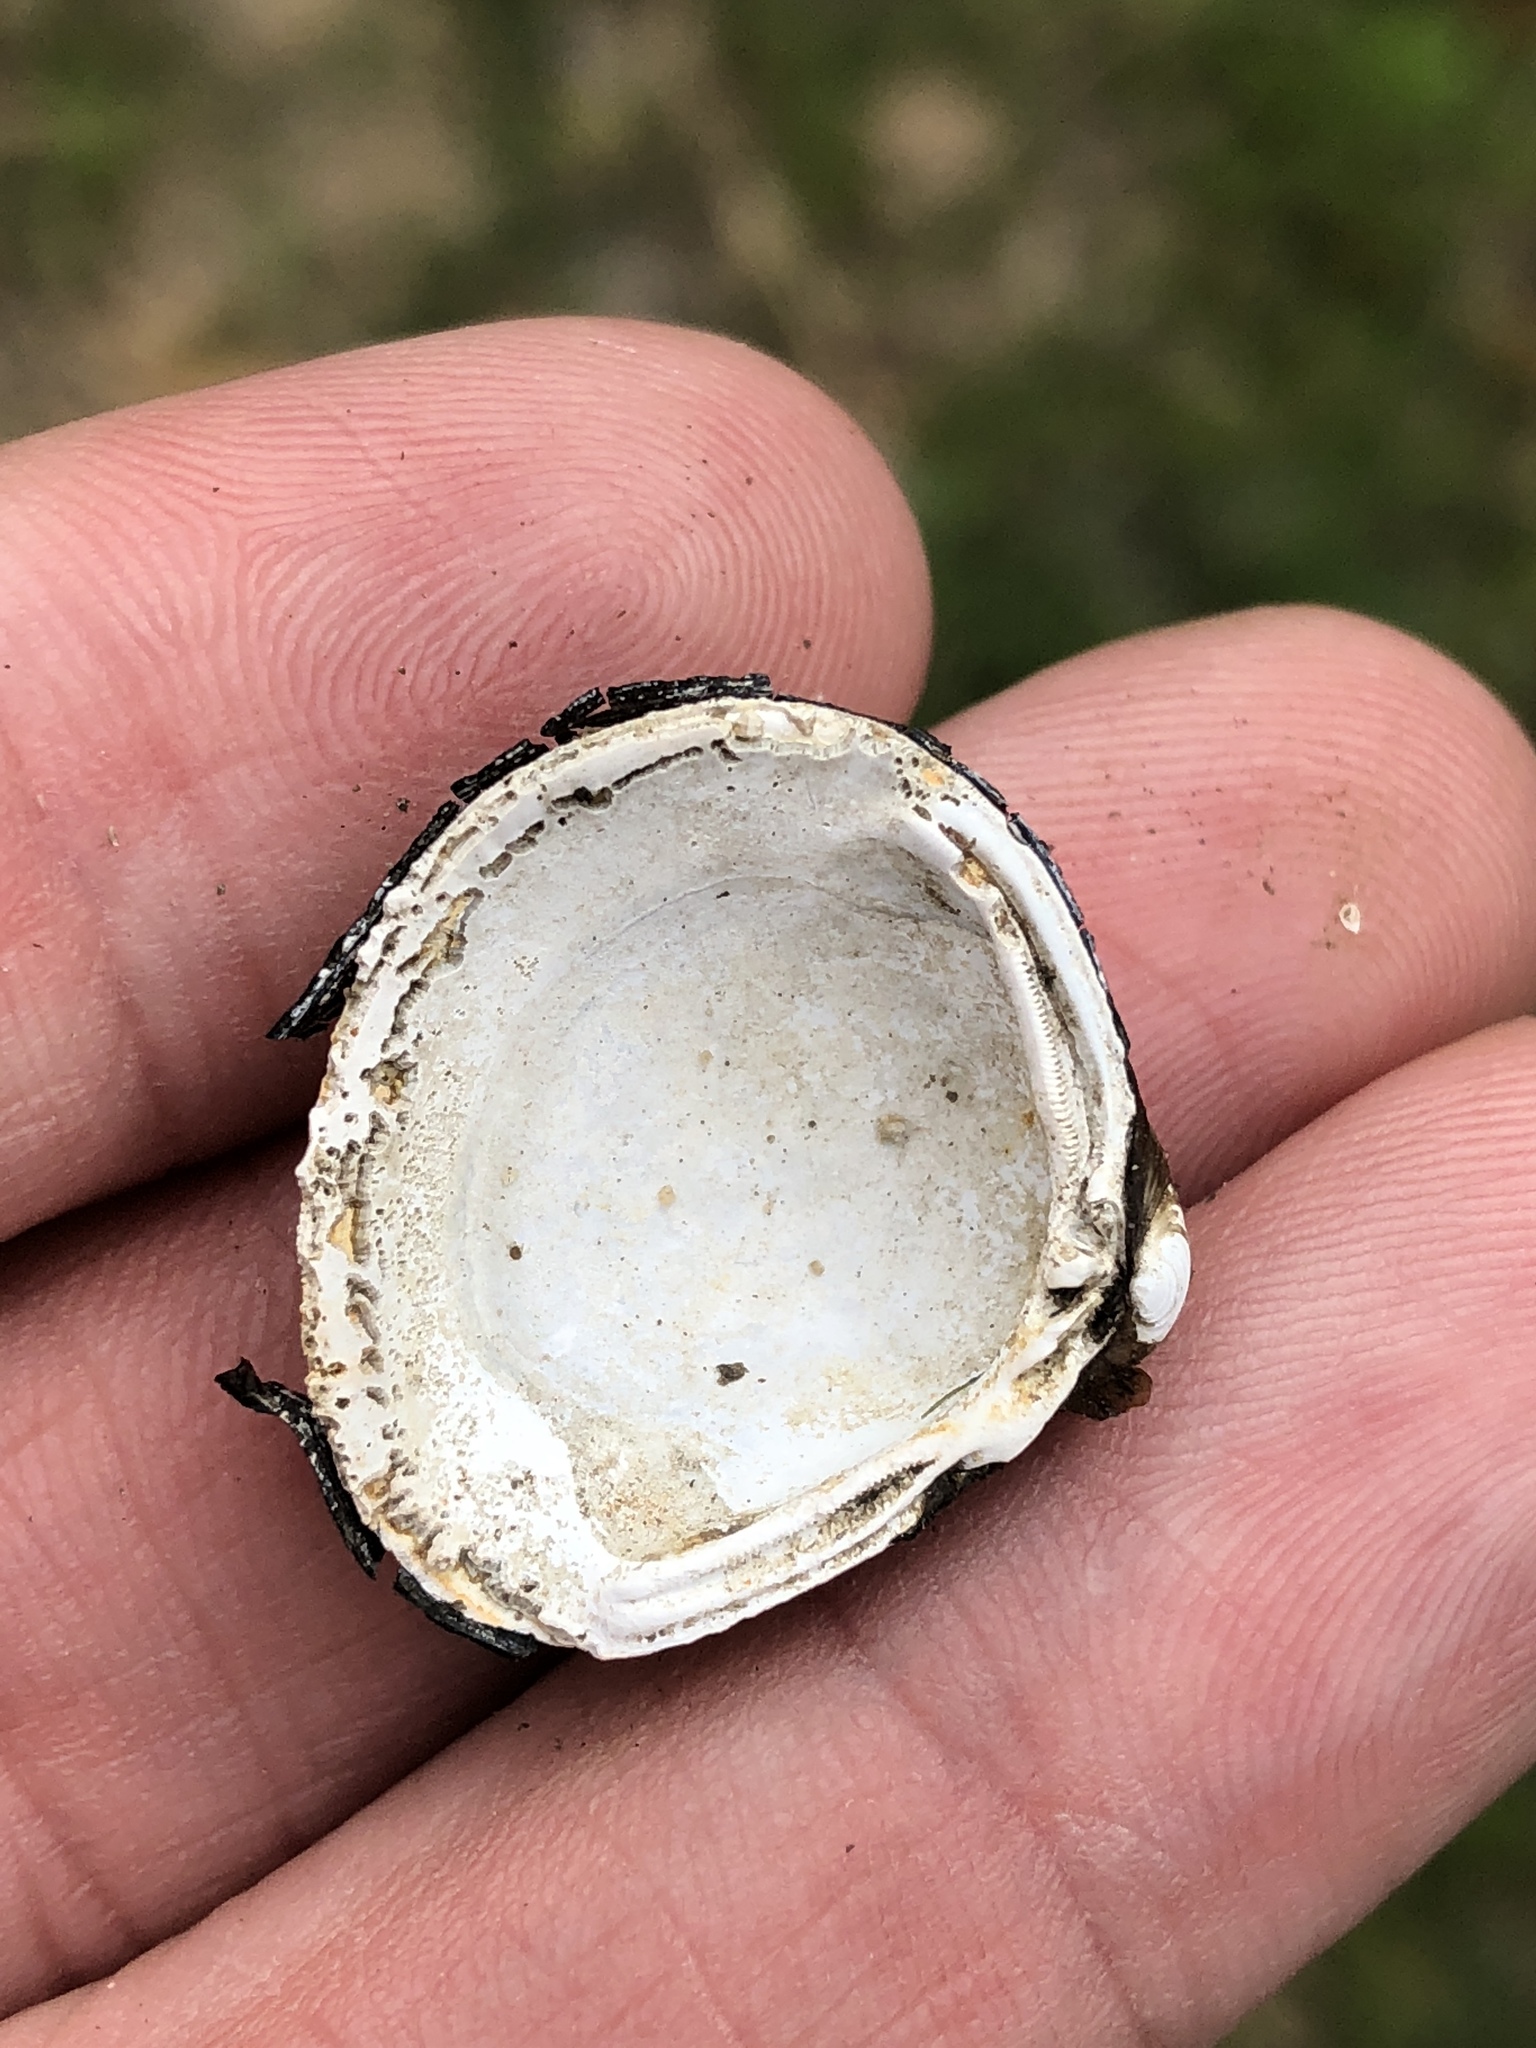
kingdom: Animalia
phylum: Mollusca
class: Bivalvia
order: Venerida
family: Cyrenidae
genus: Corbicula
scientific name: Corbicula fluminea
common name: Asian clam
